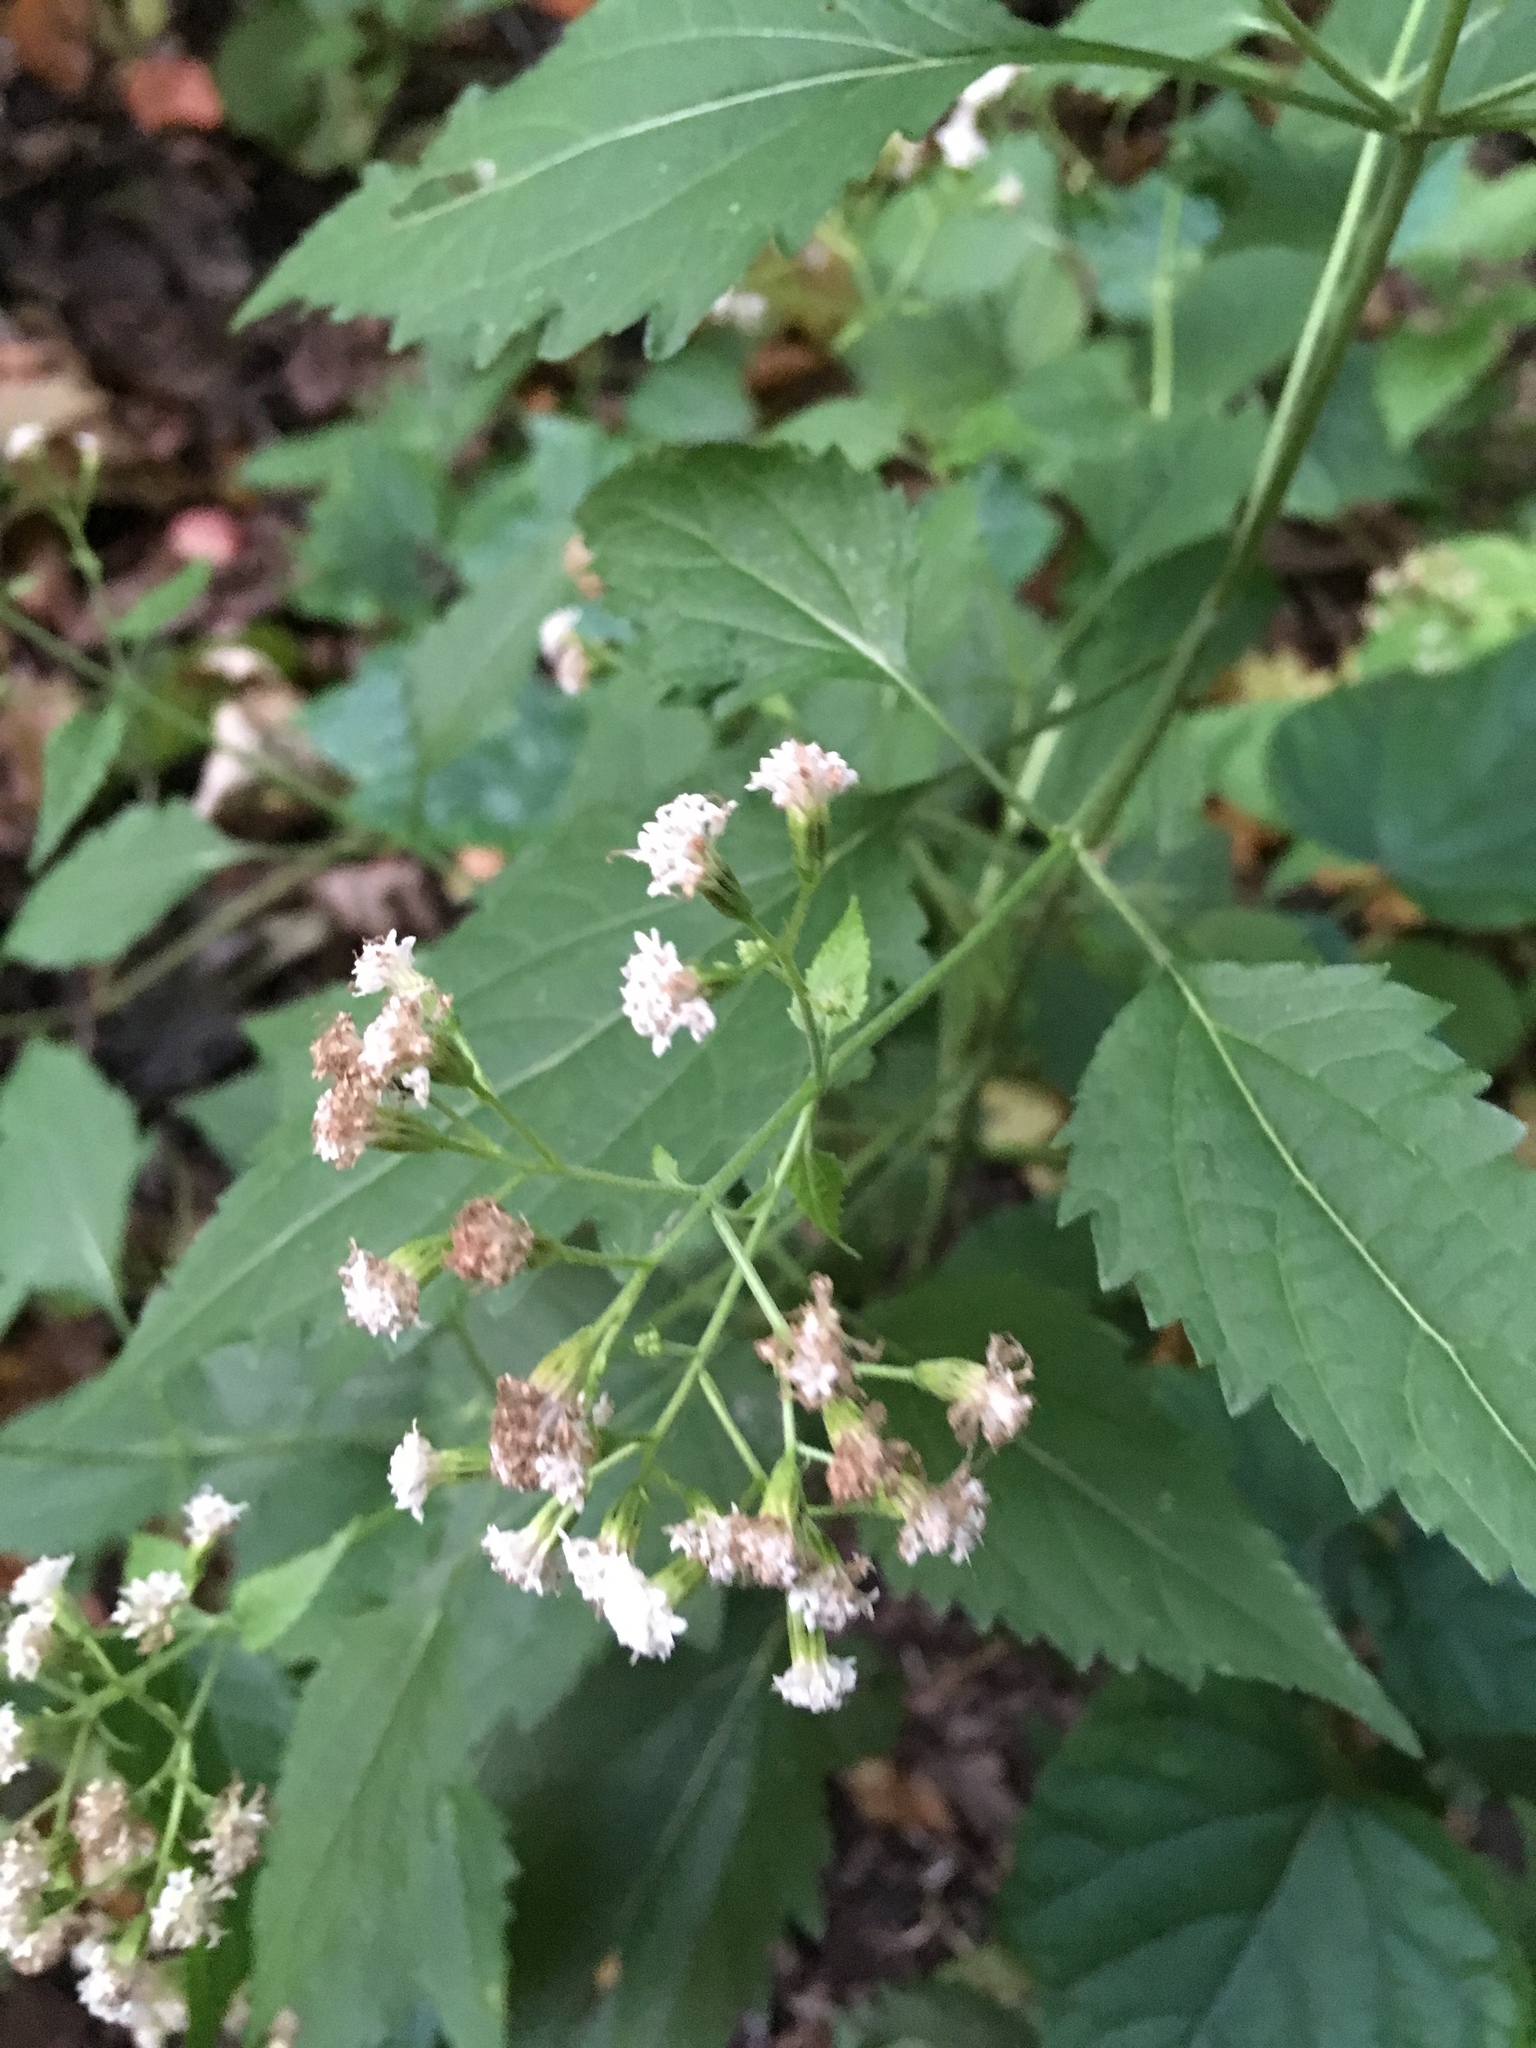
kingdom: Plantae
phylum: Tracheophyta
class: Magnoliopsida
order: Asterales
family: Asteraceae
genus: Ageratina
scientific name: Ageratina altissima
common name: White snakeroot
